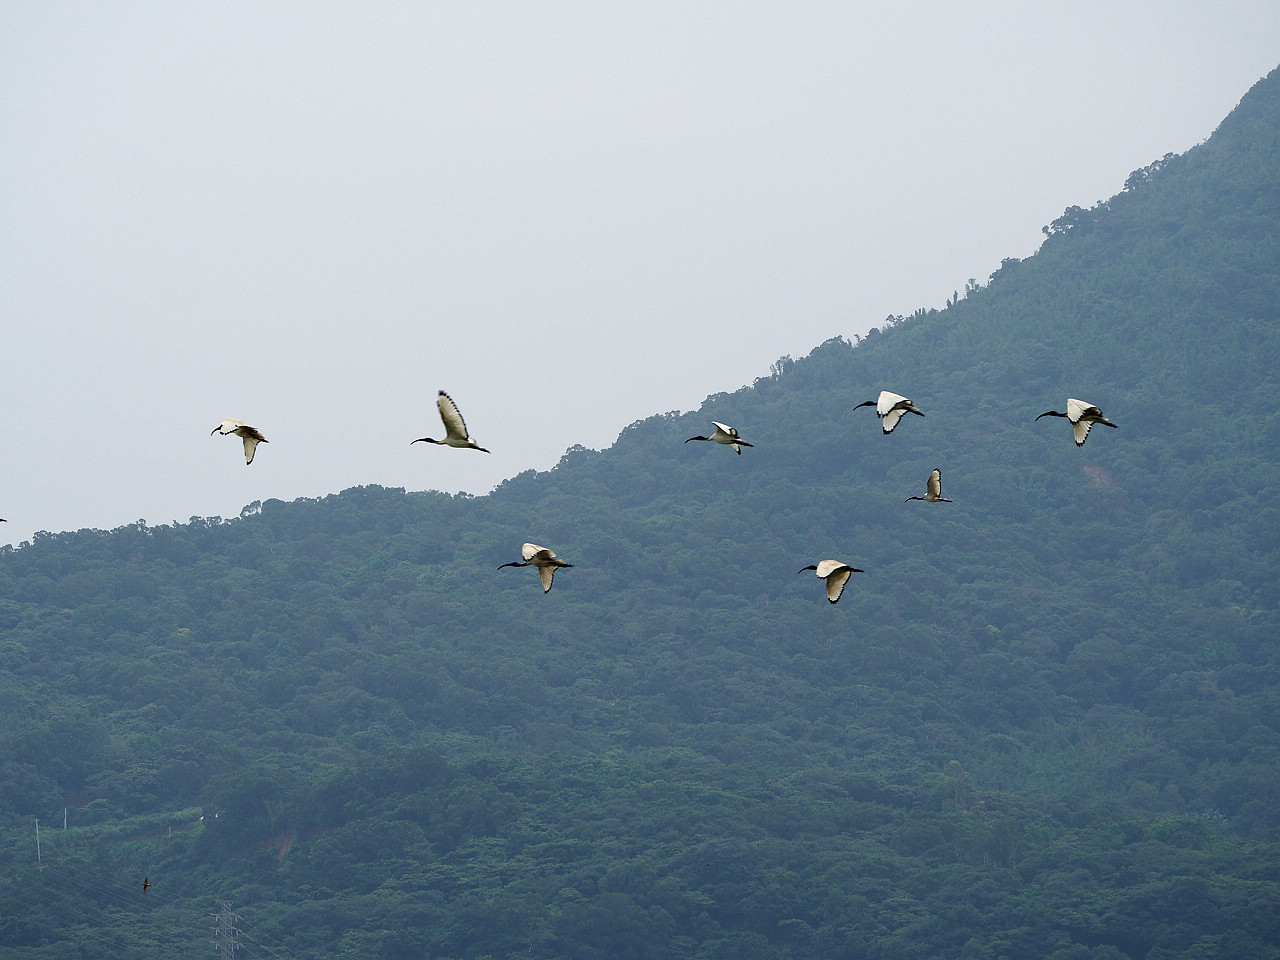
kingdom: Animalia
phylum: Chordata
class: Aves
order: Pelecaniformes
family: Threskiornithidae
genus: Threskiornis
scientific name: Threskiornis aethiopicus
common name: Sacred ibis
